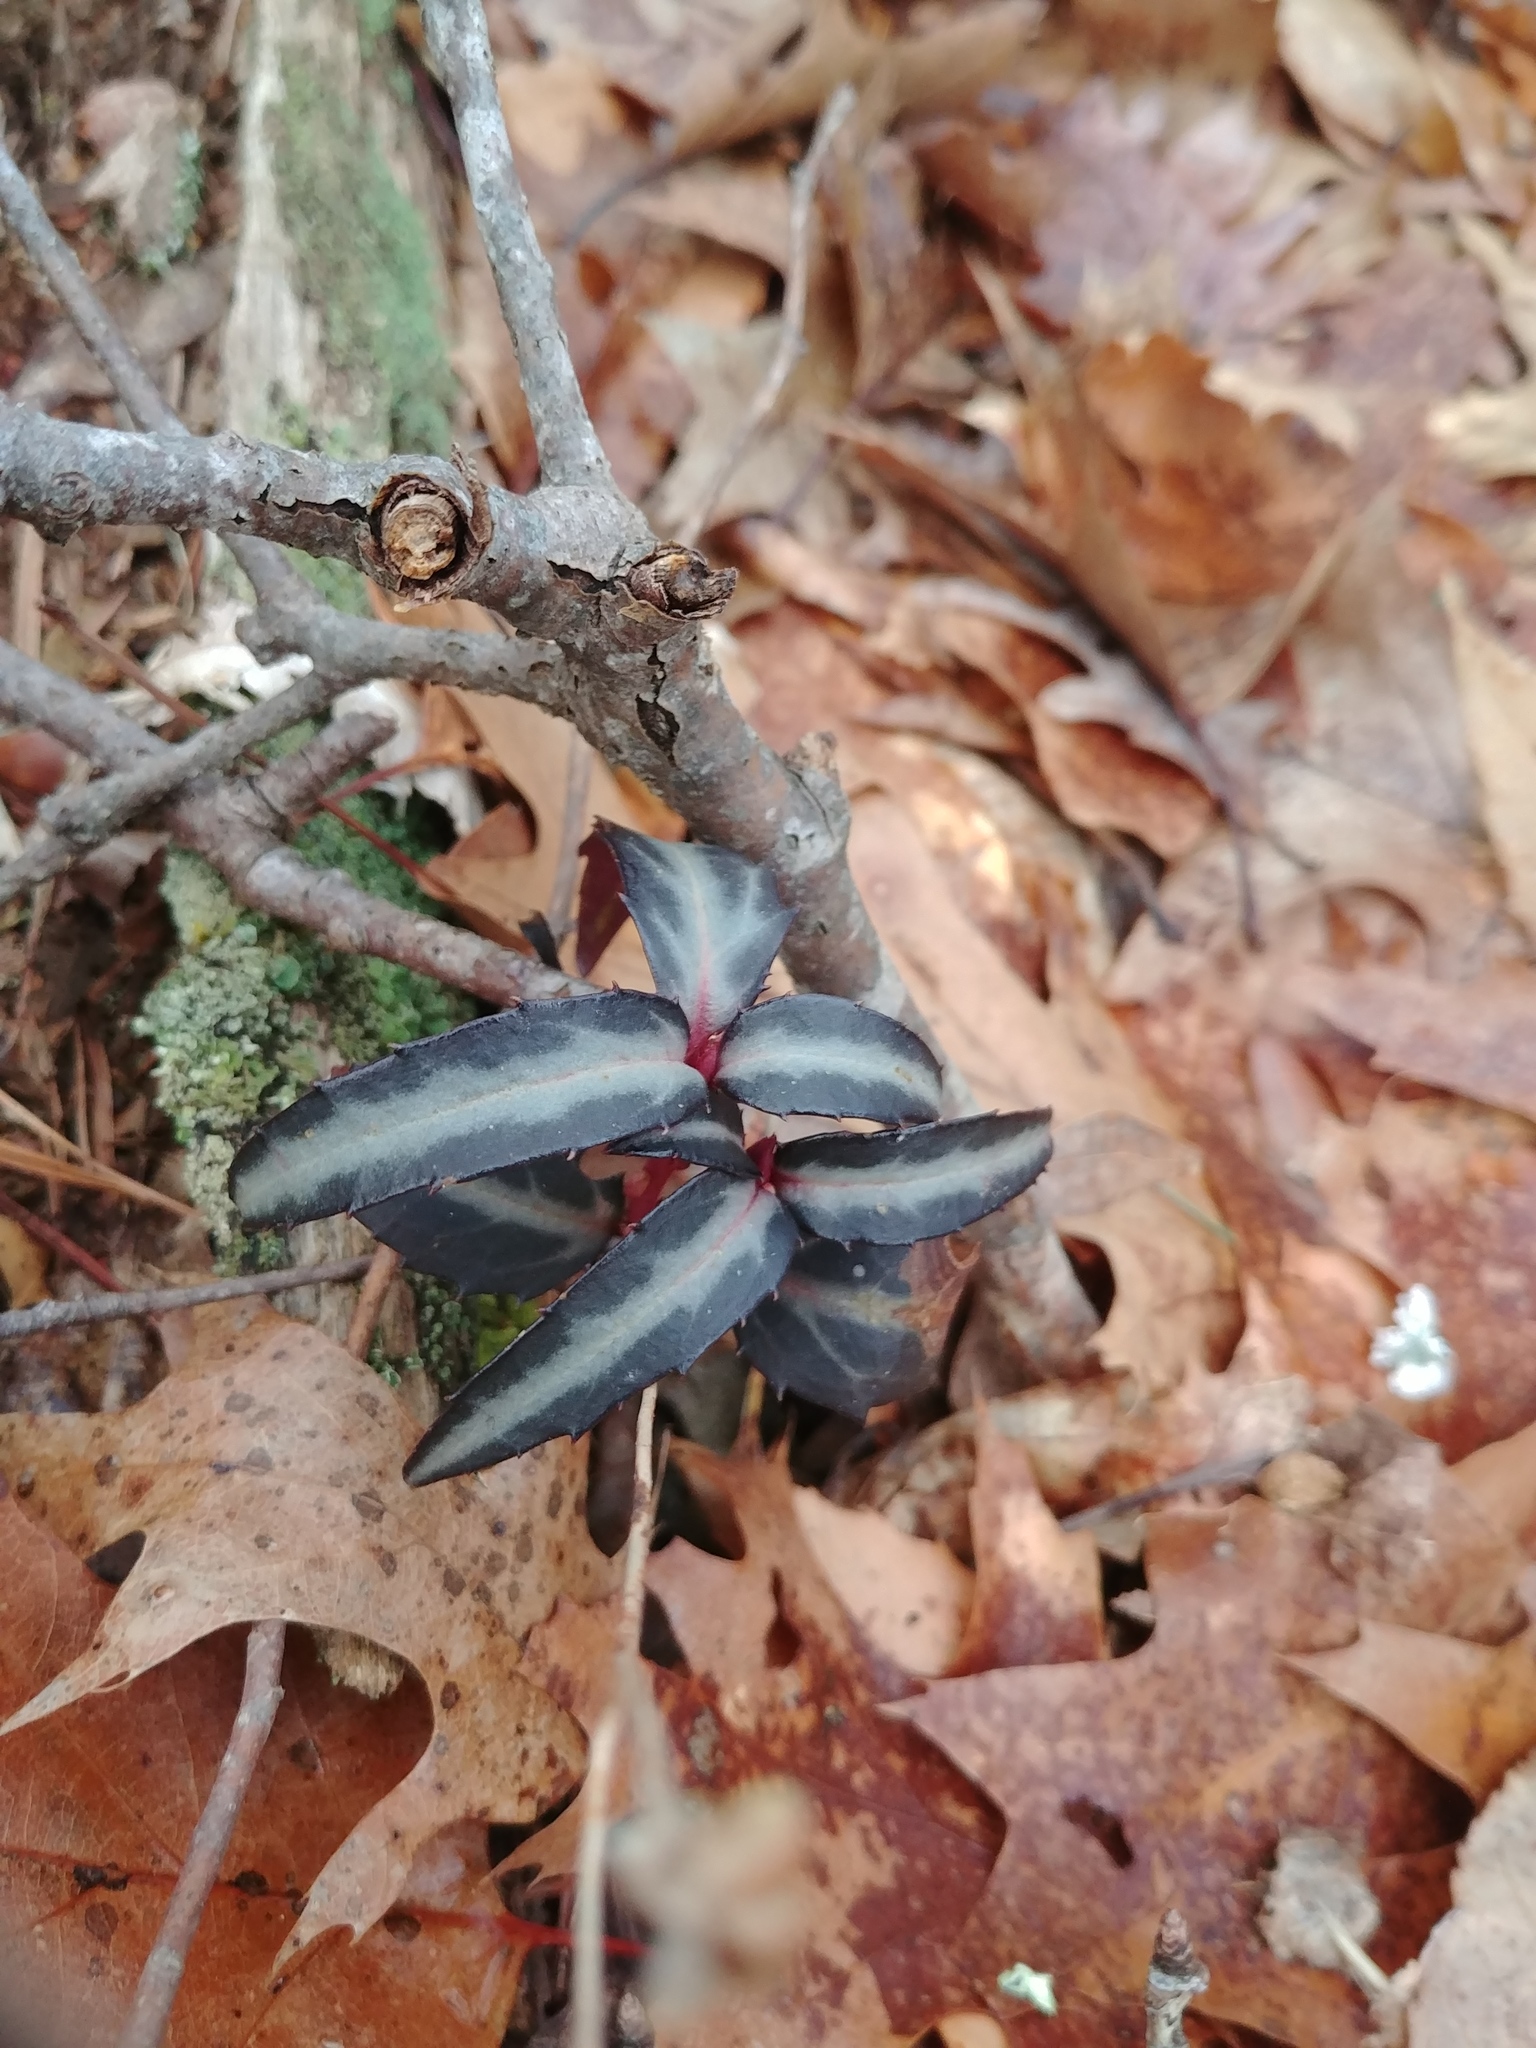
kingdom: Plantae
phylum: Tracheophyta
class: Magnoliopsida
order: Ericales
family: Ericaceae
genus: Chimaphila
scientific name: Chimaphila maculata
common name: Spotted pipsissewa
